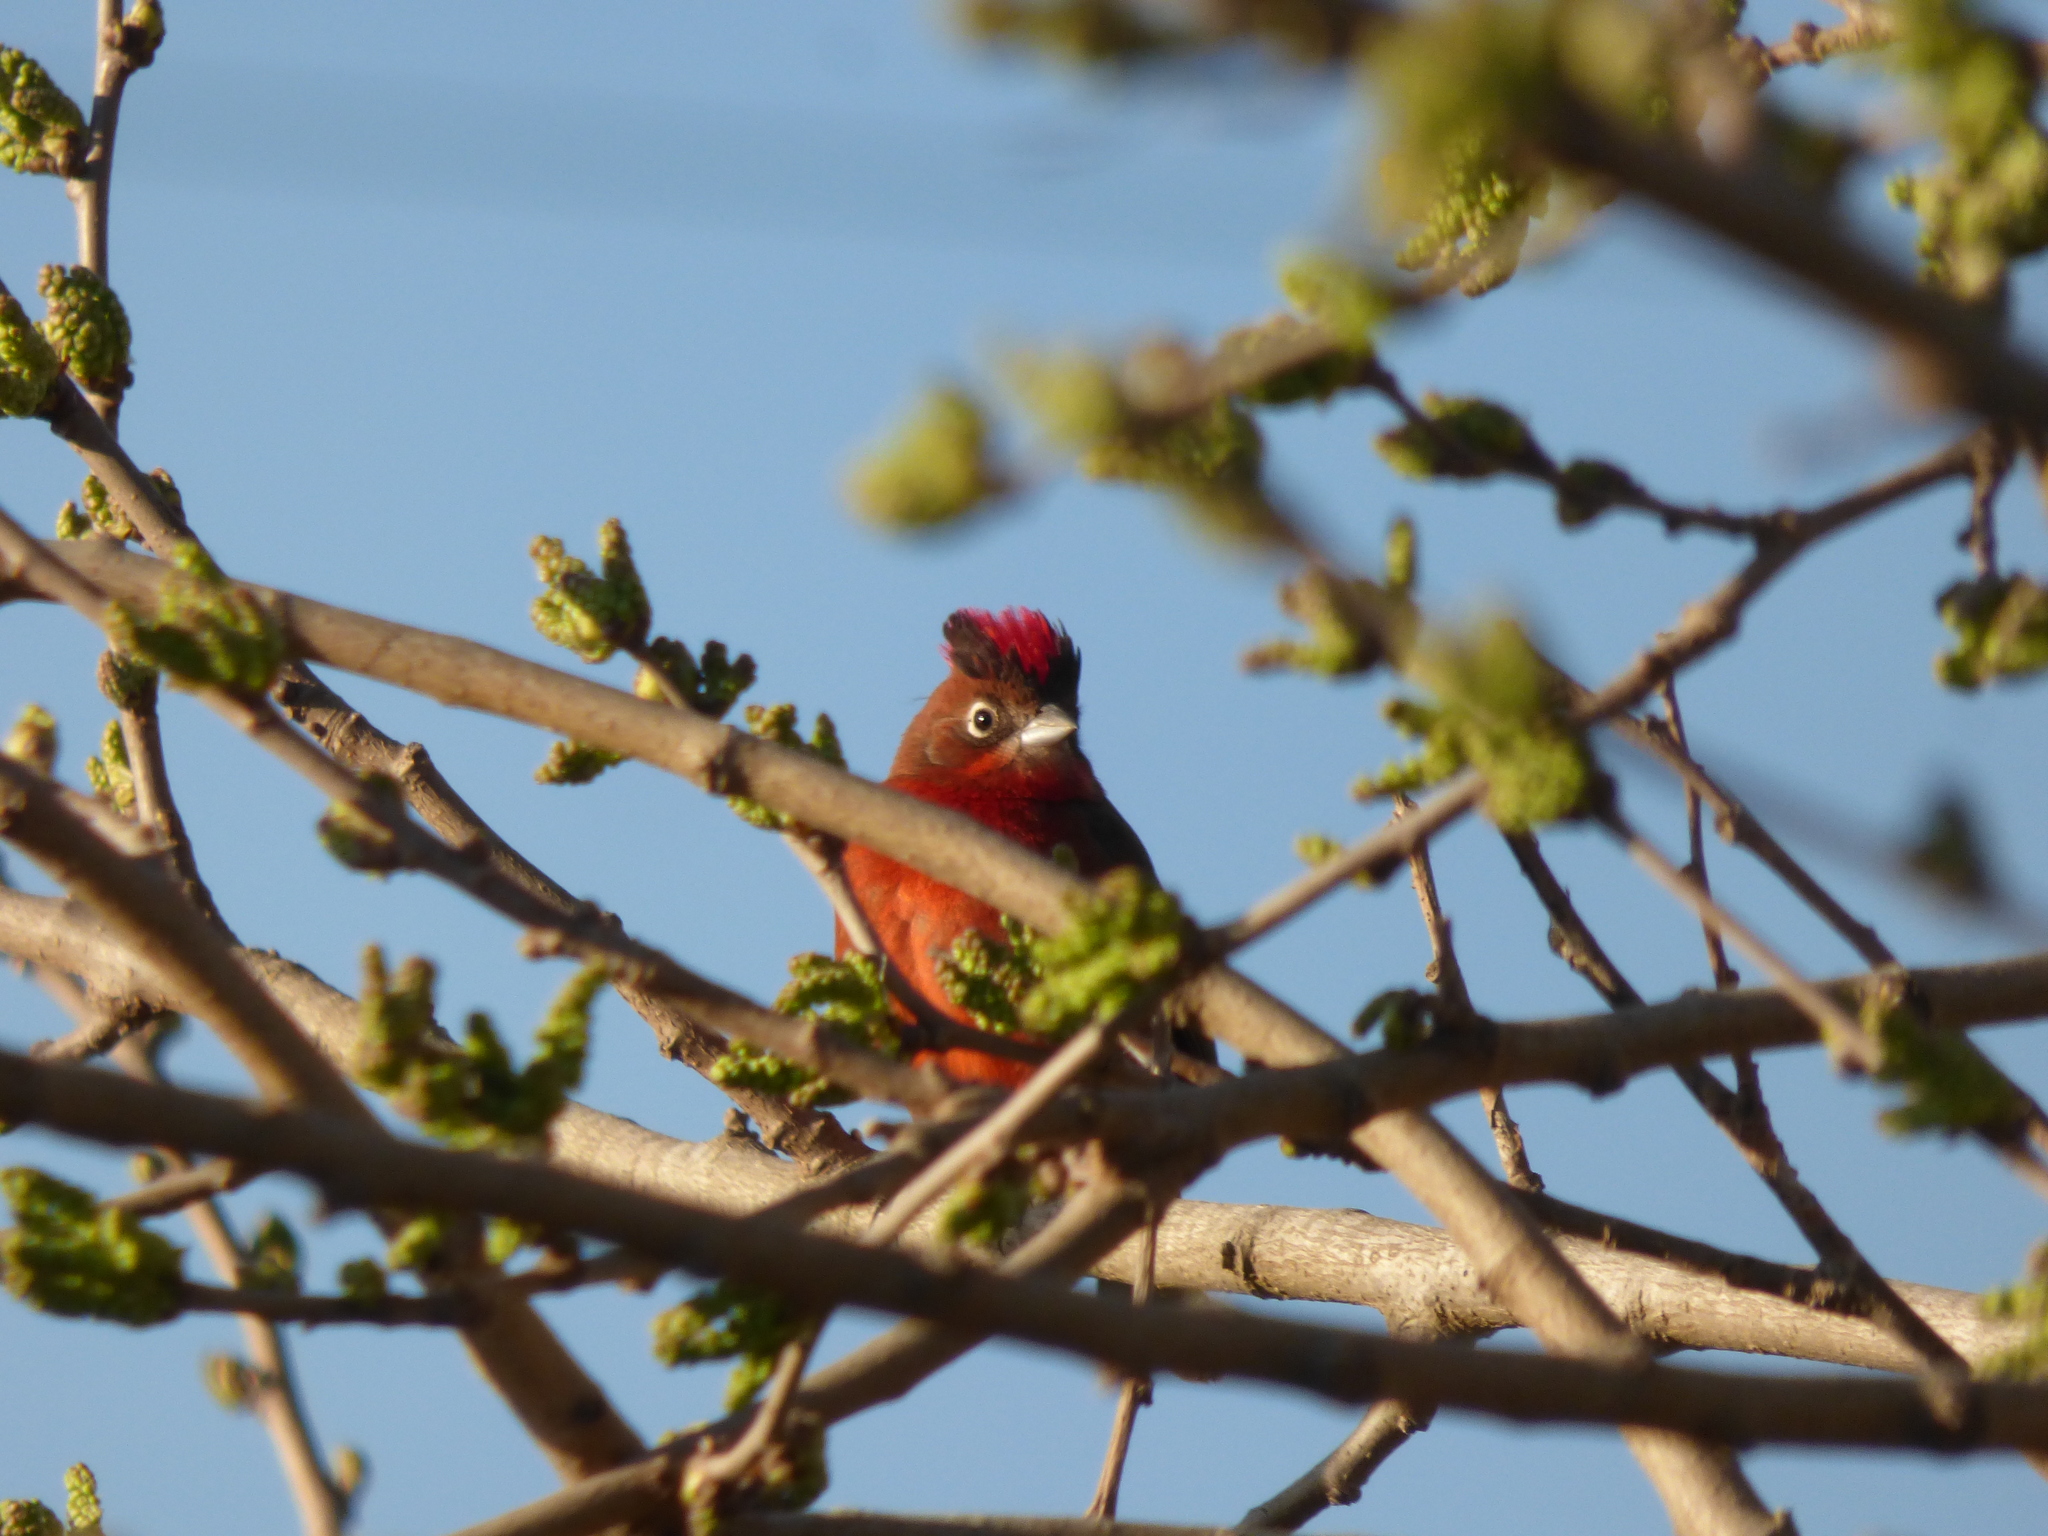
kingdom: Animalia
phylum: Chordata
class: Aves
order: Passeriformes
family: Thraupidae
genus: Coryphospingus
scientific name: Coryphospingus cucullatus
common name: Red pileated finch
